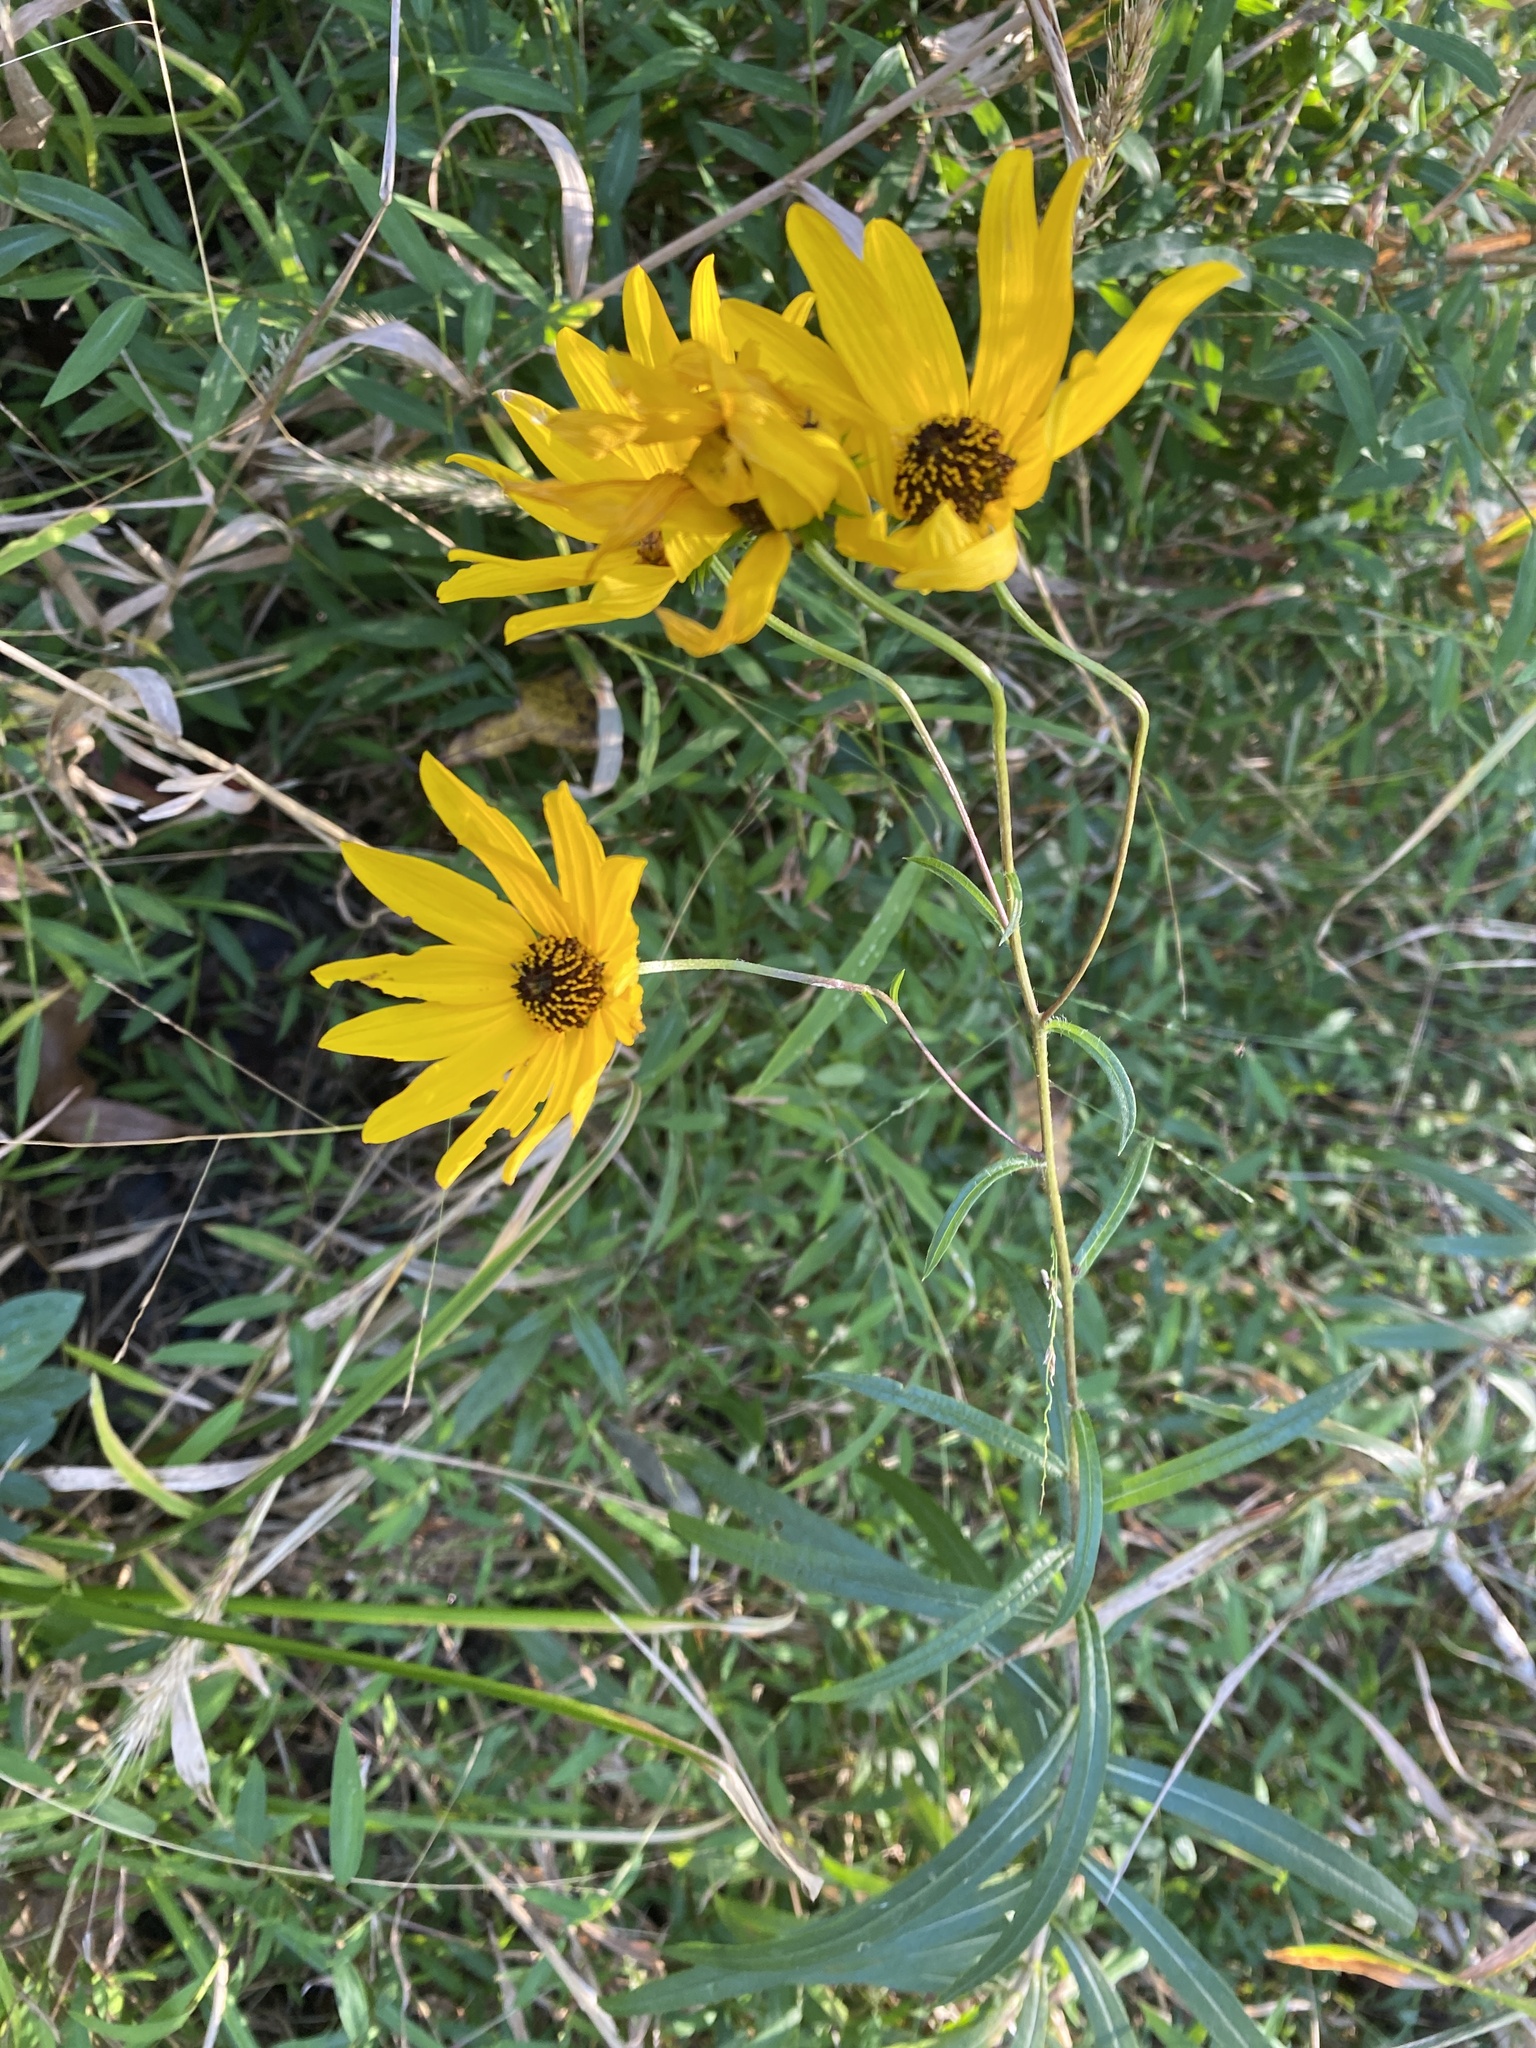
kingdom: Plantae
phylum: Tracheophyta
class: Magnoliopsida
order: Asterales
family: Asteraceae
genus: Helianthus
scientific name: Helianthus angustifolius
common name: Swamp sunflower
